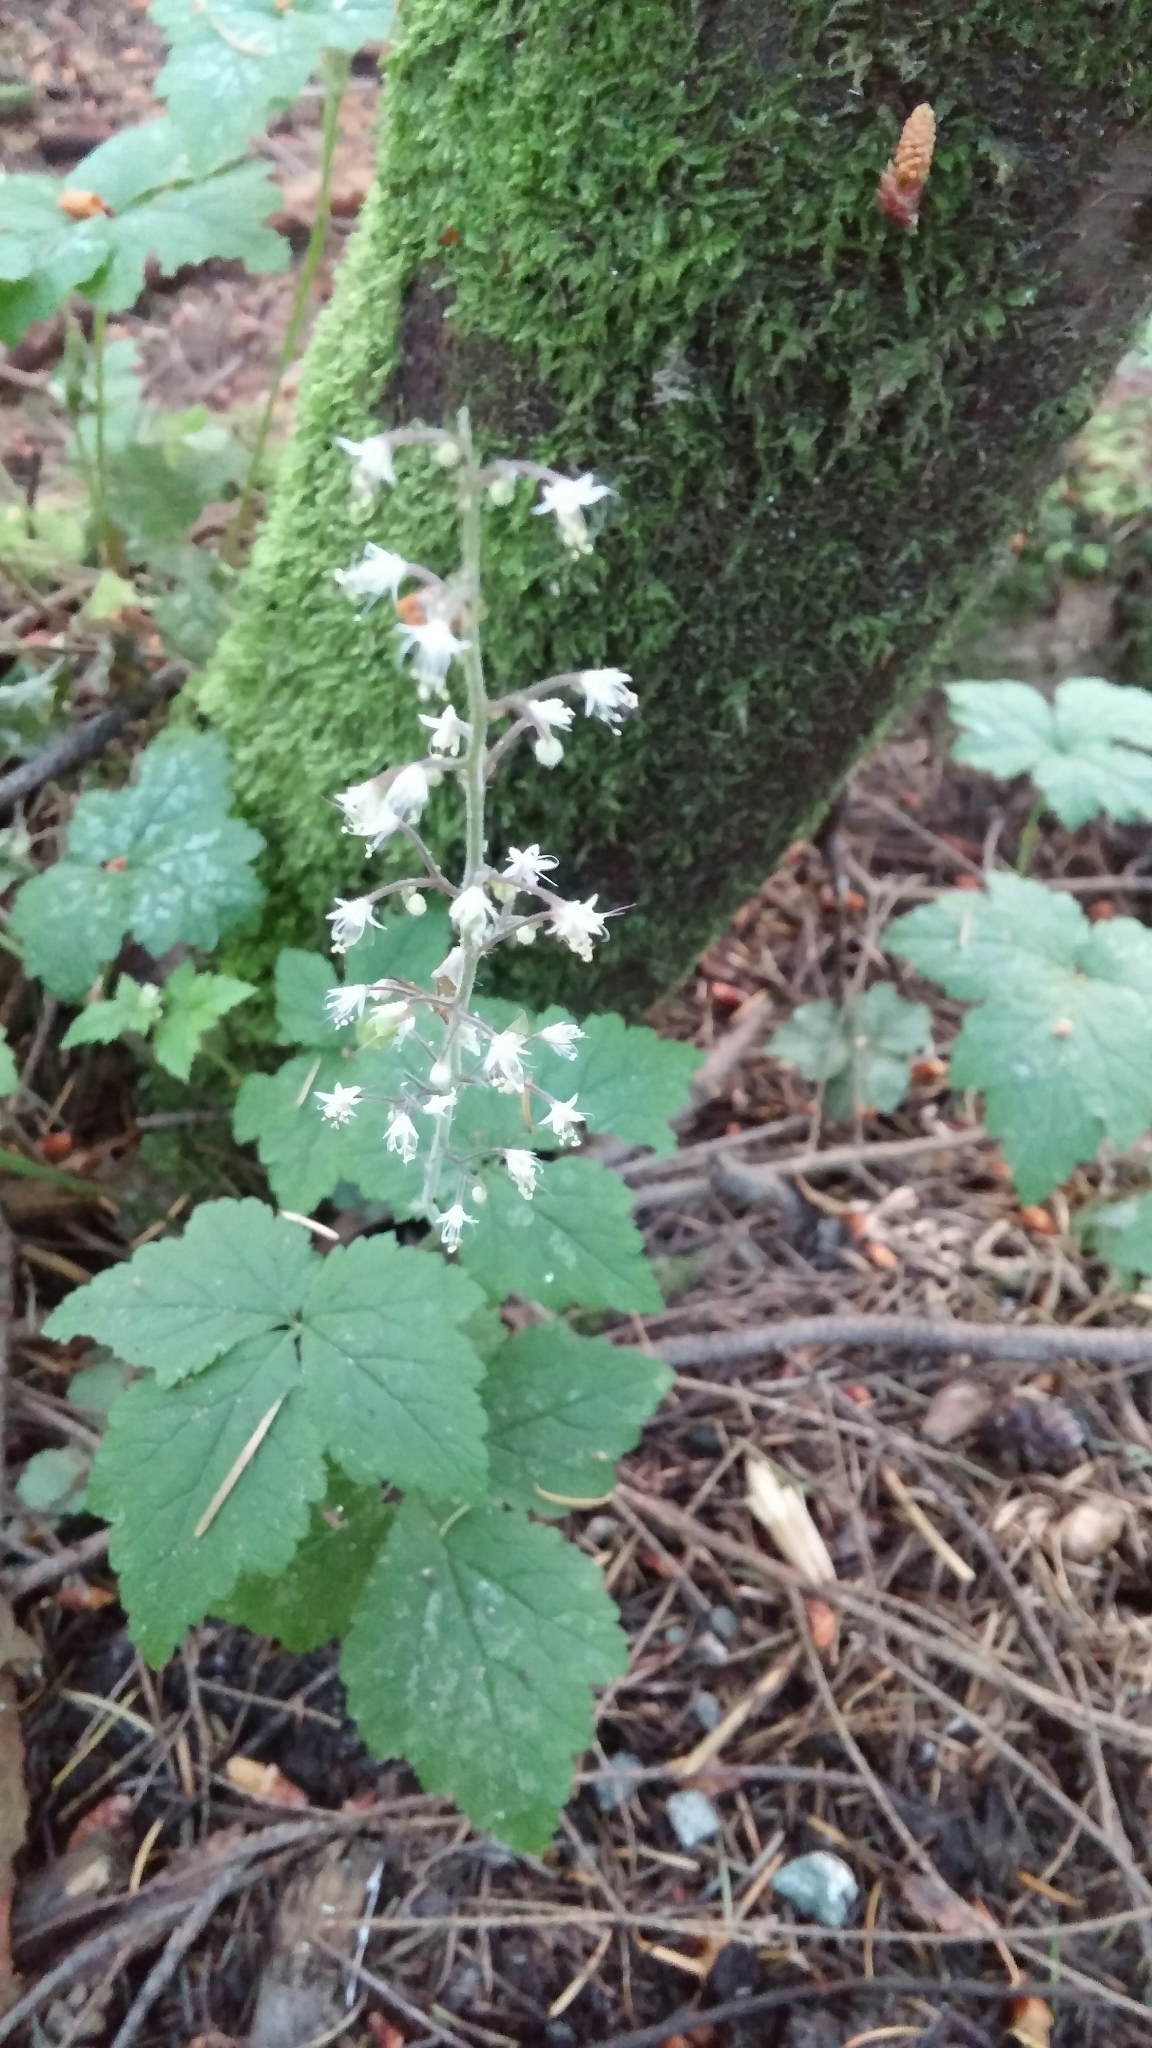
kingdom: Plantae
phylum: Tracheophyta
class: Magnoliopsida
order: Saxifragales
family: Saxifragaceae
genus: Tiarella
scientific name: Tiarella trifoliata
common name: Sugar-scoop
